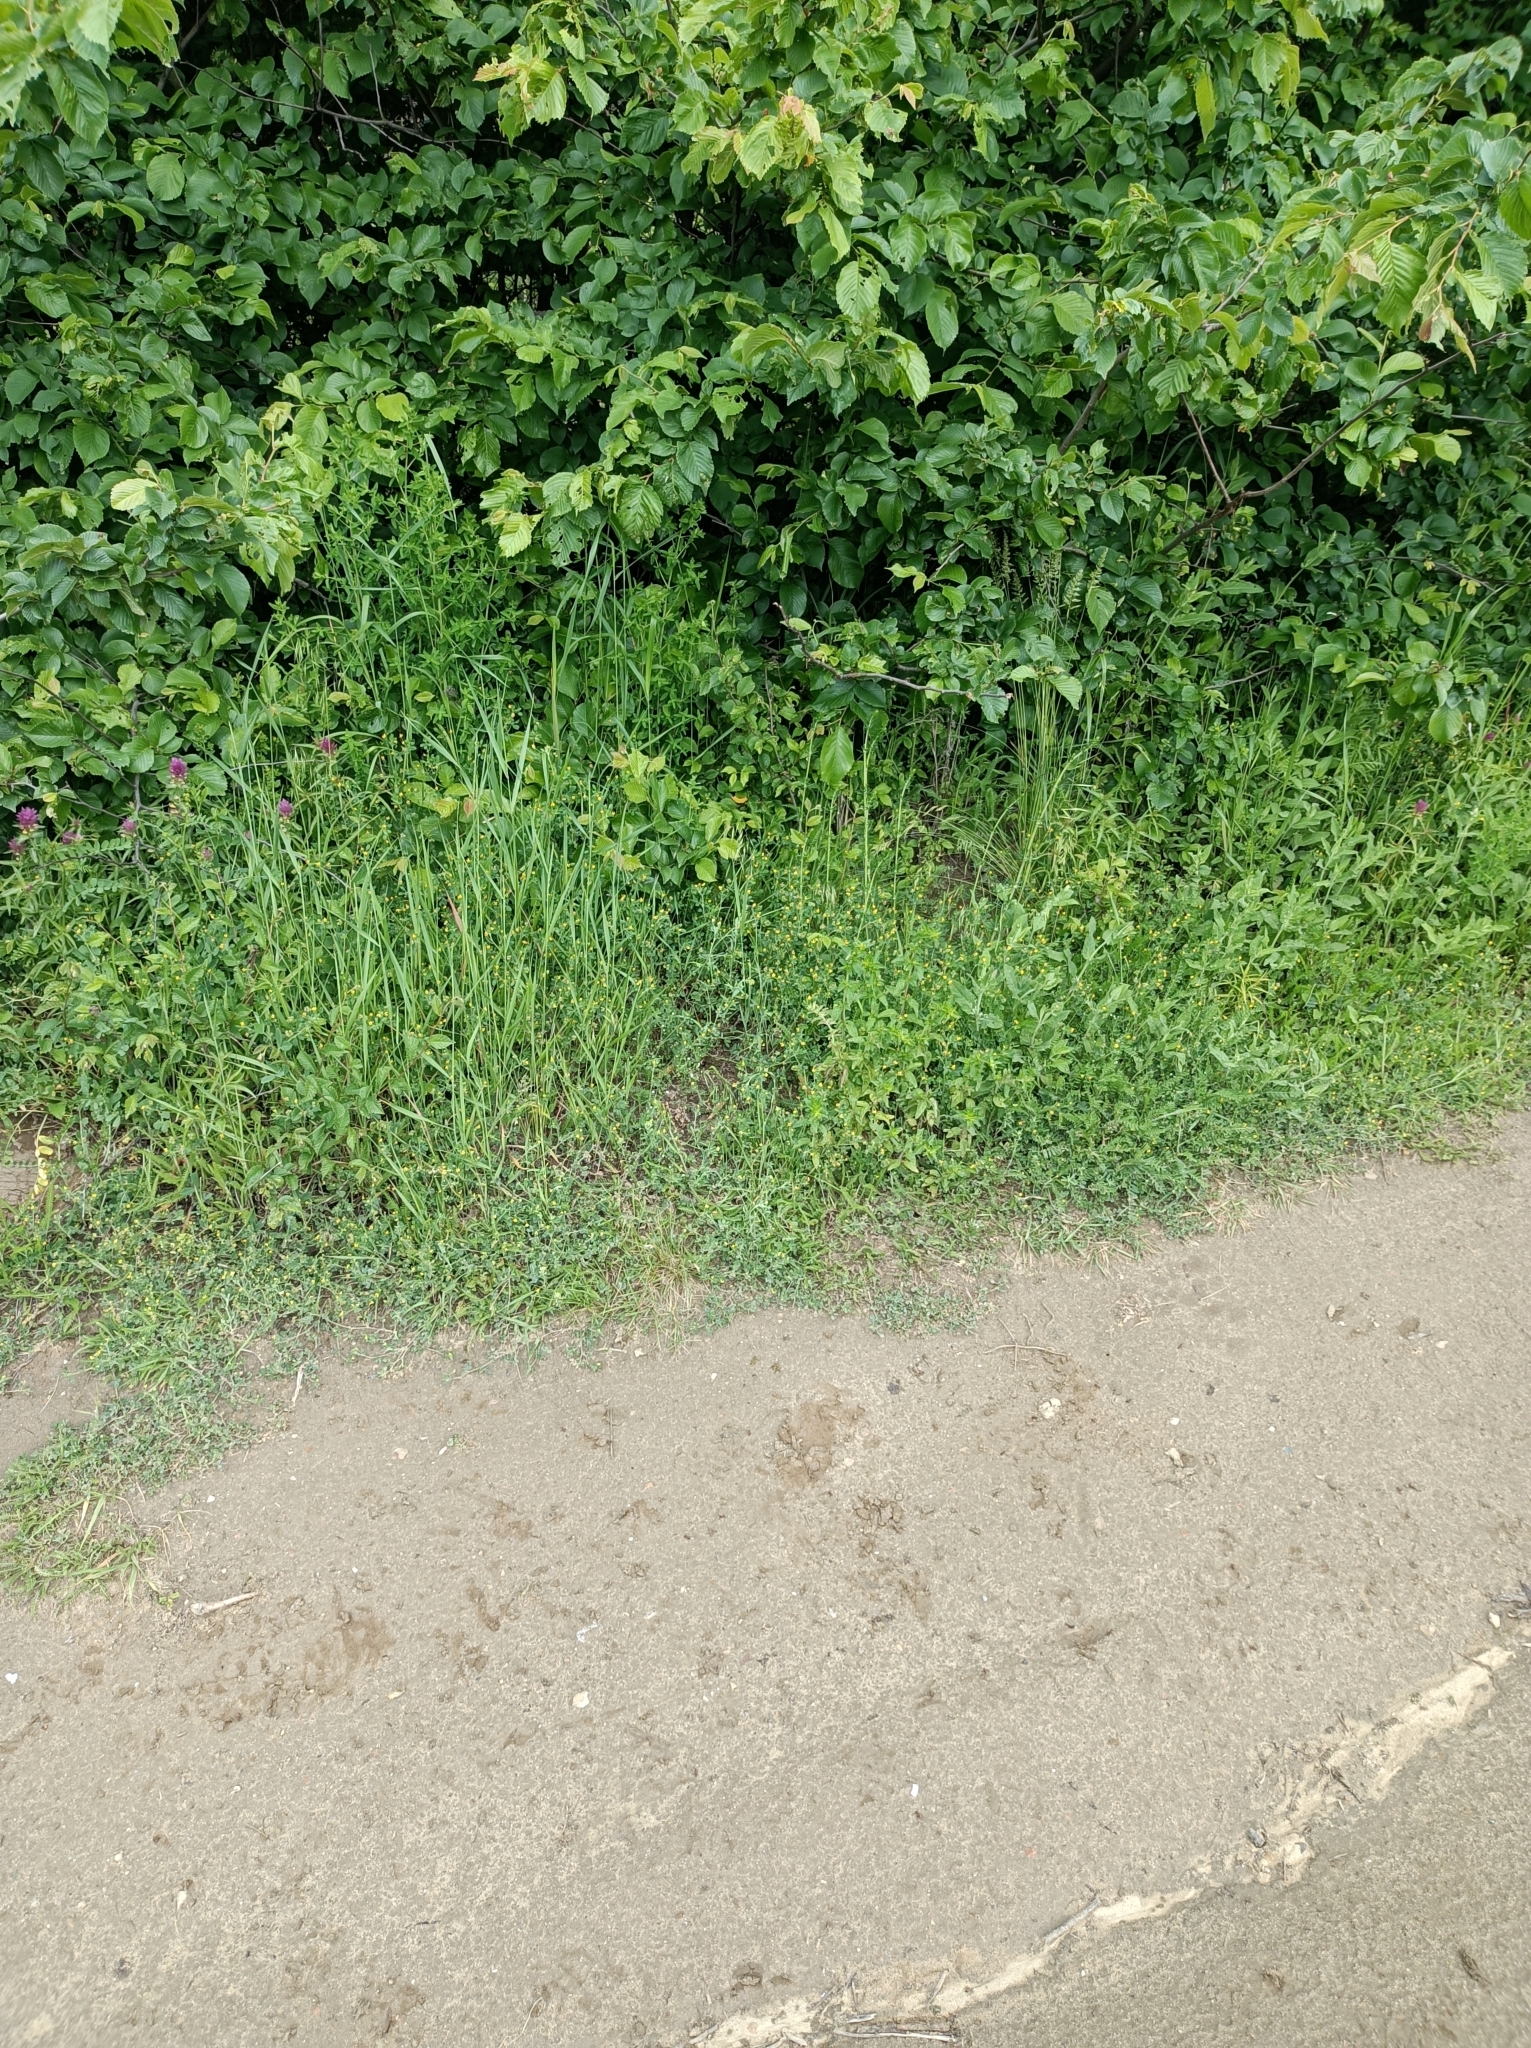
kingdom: Animalia
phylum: Arthropoda
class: Insecta
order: Hymenoptera
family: Formicidae
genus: Formica
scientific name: Formica sanguinea
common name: Blood-red ant
